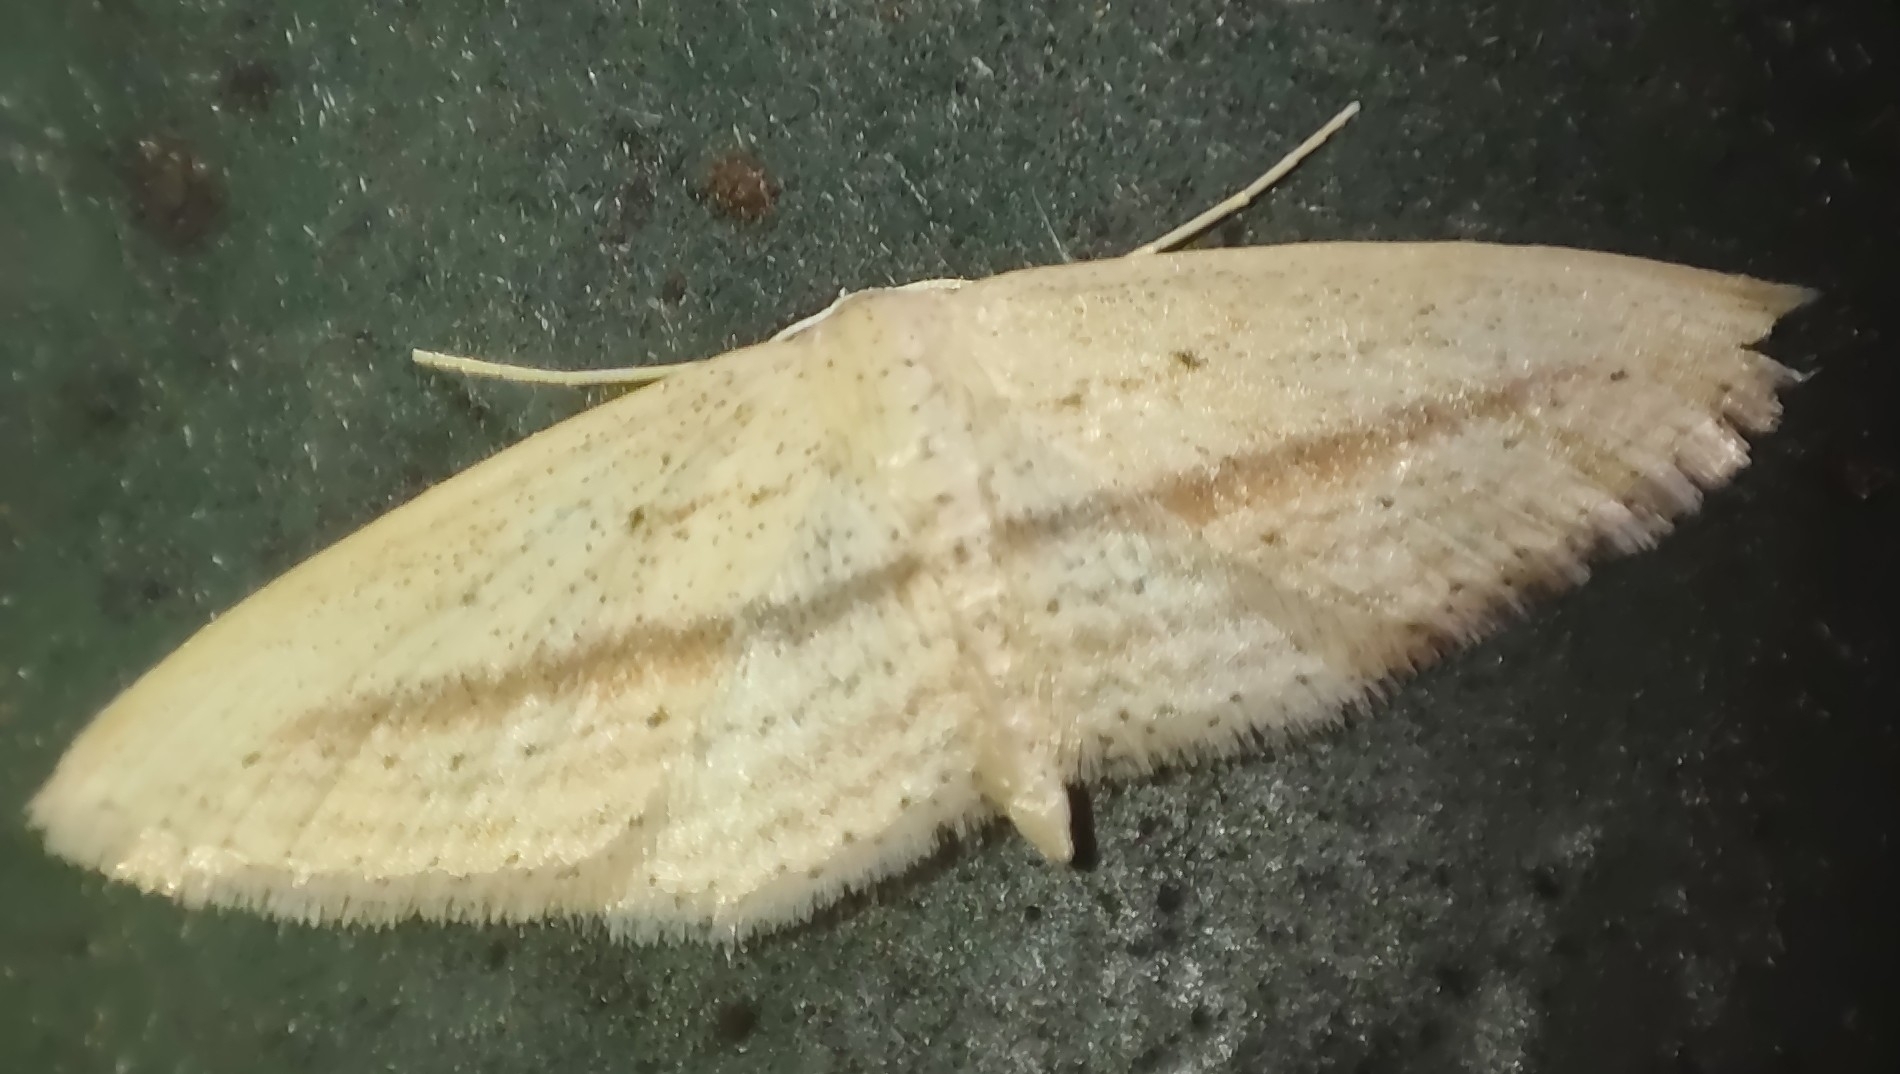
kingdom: Animalia
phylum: Arthropoda
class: Insecta
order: Lepidoptera
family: Geometridae
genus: Scopula
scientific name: Scopula emissaria
